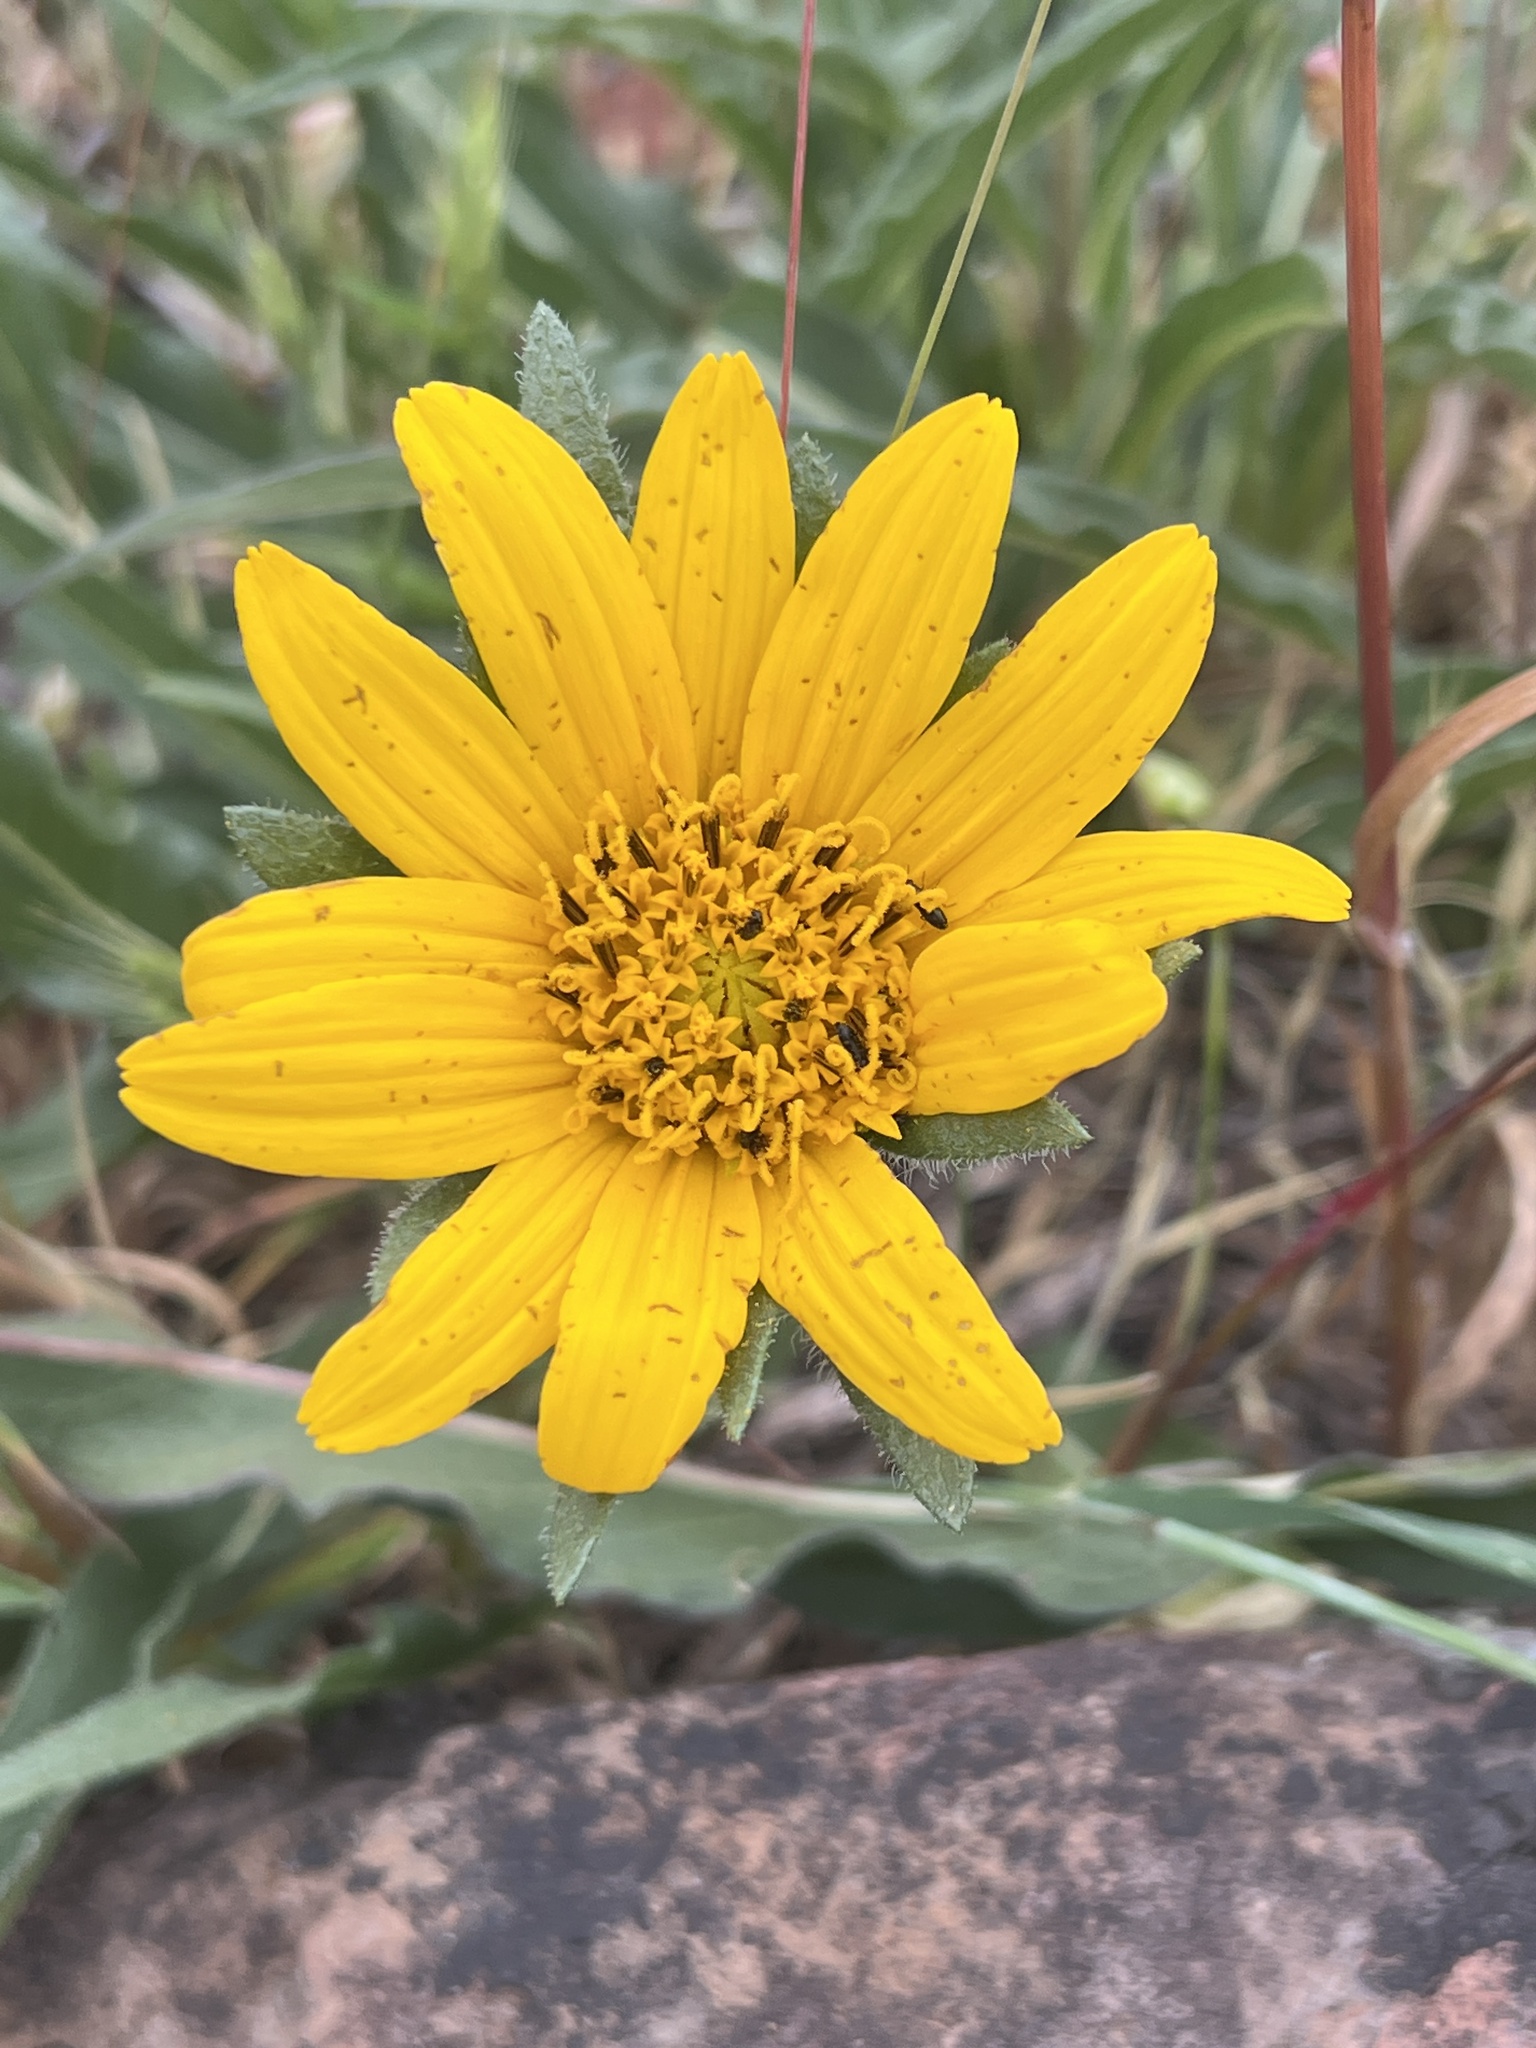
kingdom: Plantae
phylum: Tracheophyta
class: Magnoliopsida
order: Asterales
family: Asteraceae
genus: Wyethia
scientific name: Wyethia angustifolia
